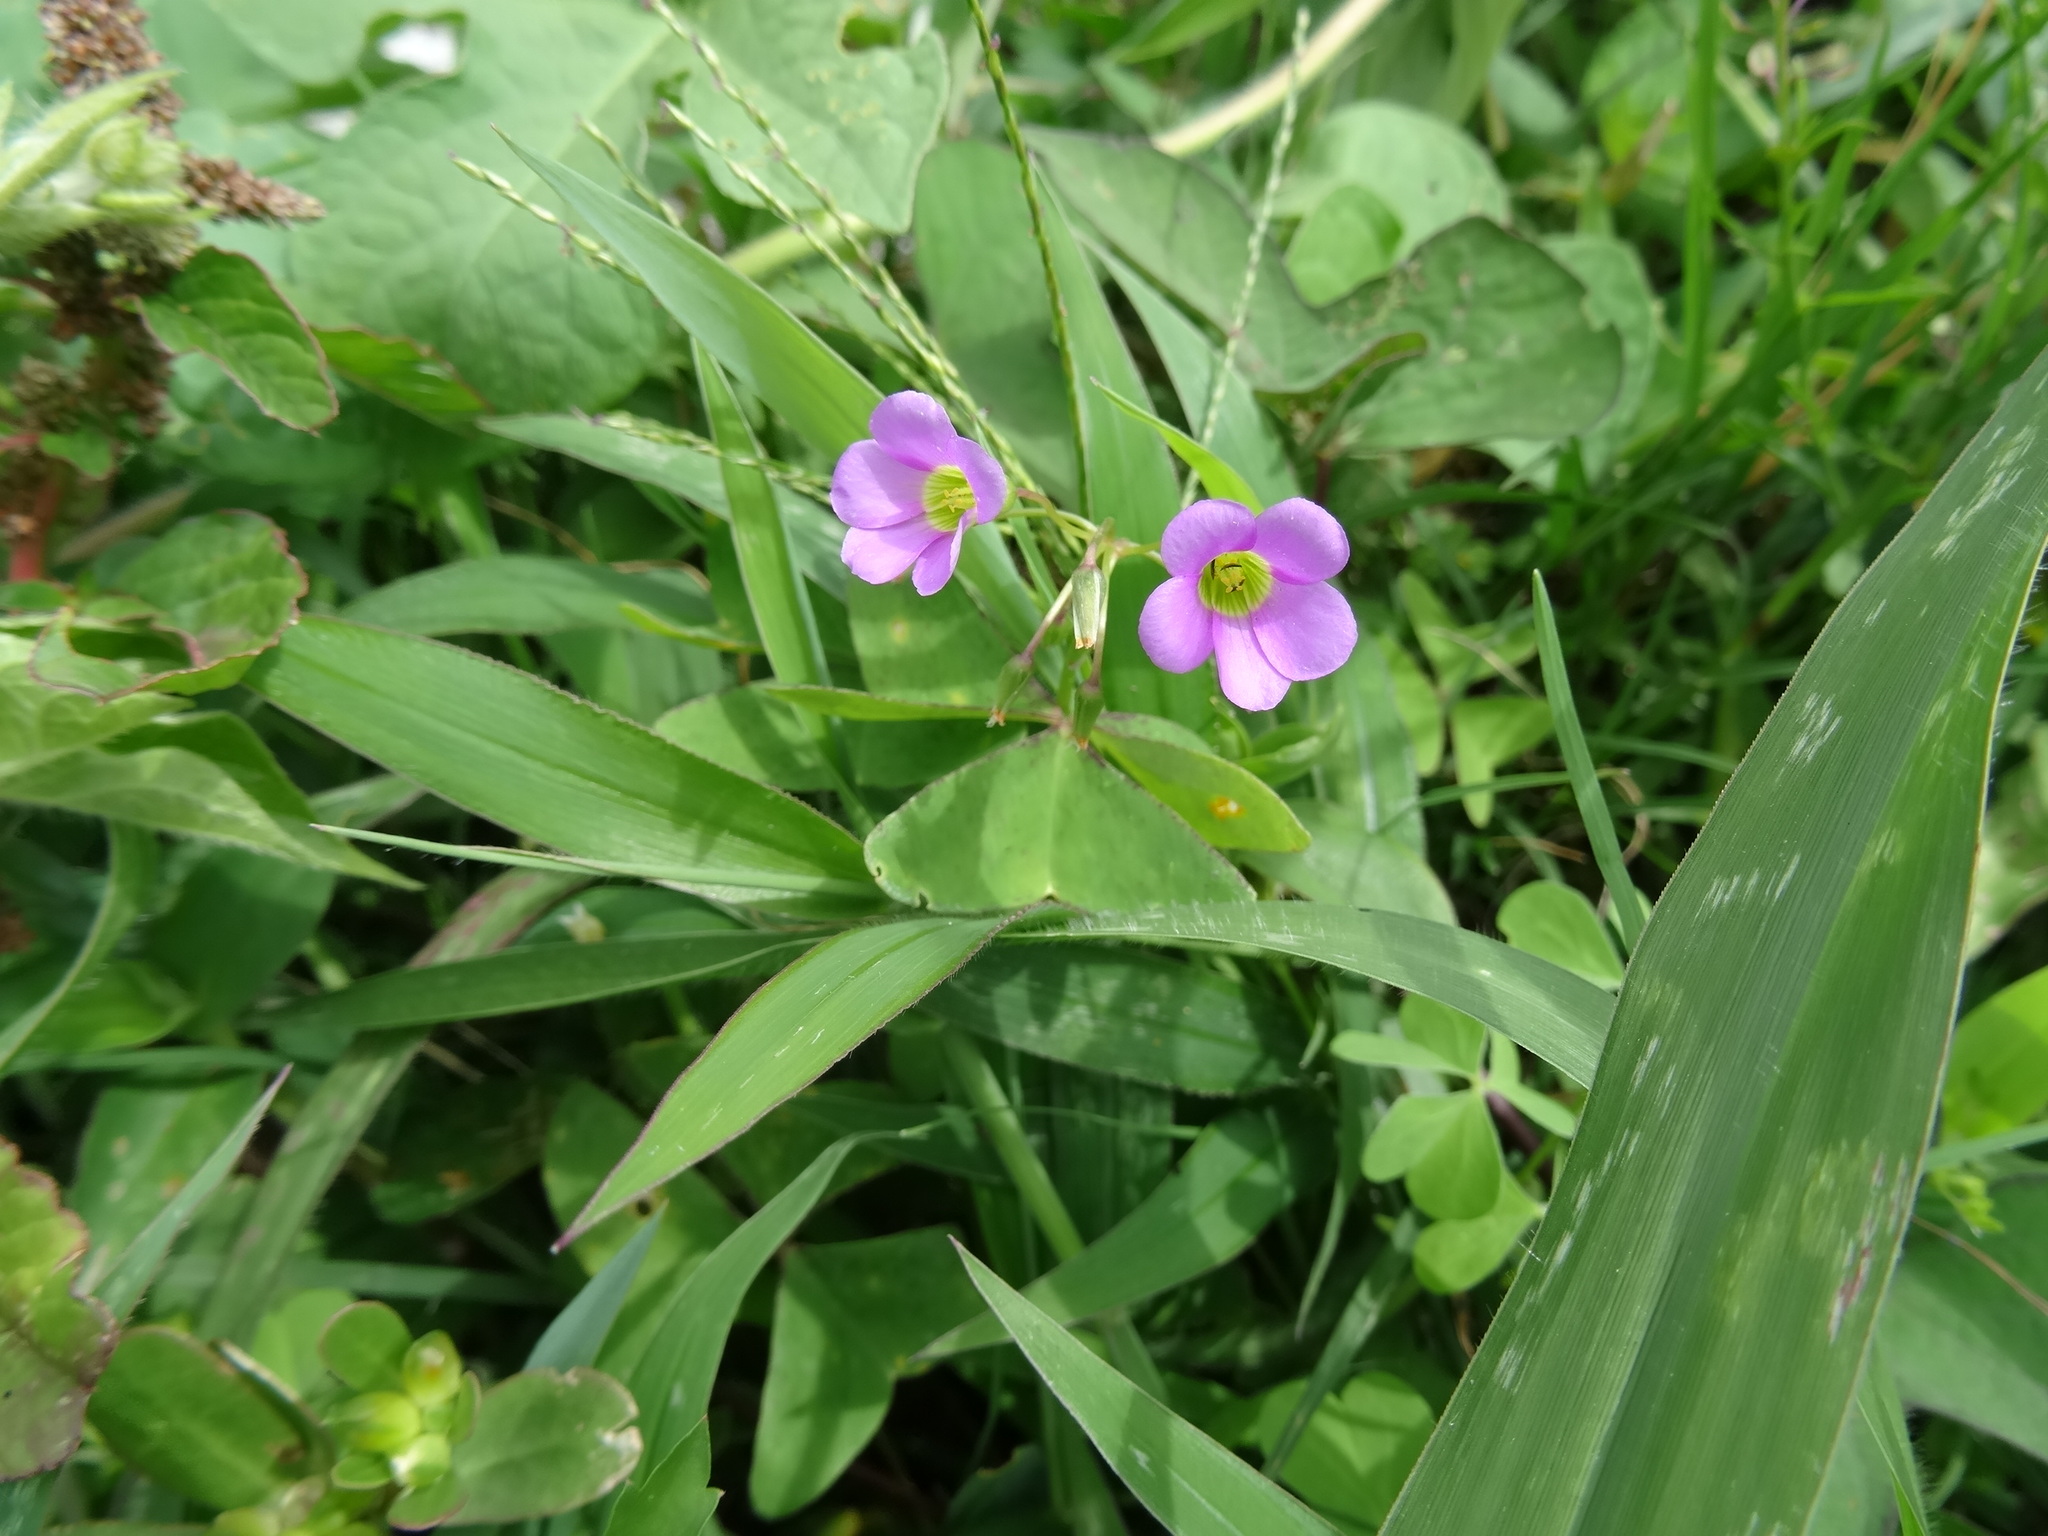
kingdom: Plantae
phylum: Tracheophyta
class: Magnoliopsida
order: Oxalidales
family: Oxalidaceae
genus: Oxalis
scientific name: Oxalis latifolia
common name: Garden pink-sorrel
